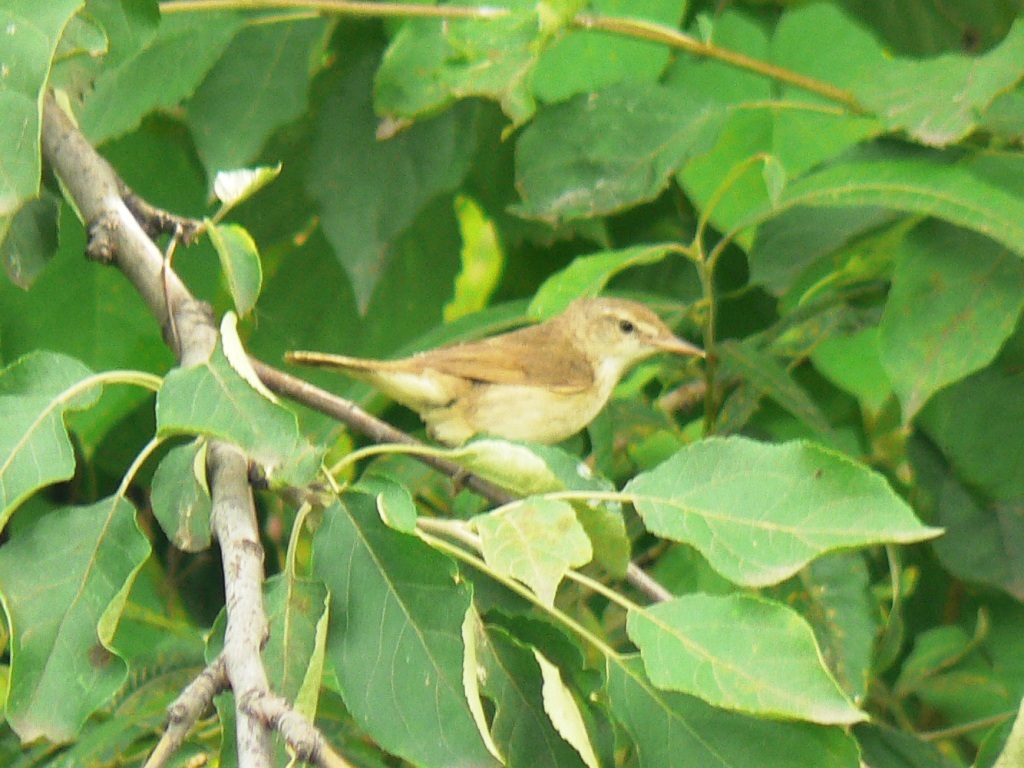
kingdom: Animalia
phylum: Chordata
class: Aves
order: Passeriformes
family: Acrocephalidae
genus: Acrocephalus
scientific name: Acrocephalus dumetorum
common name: Blyth's reed warbler
